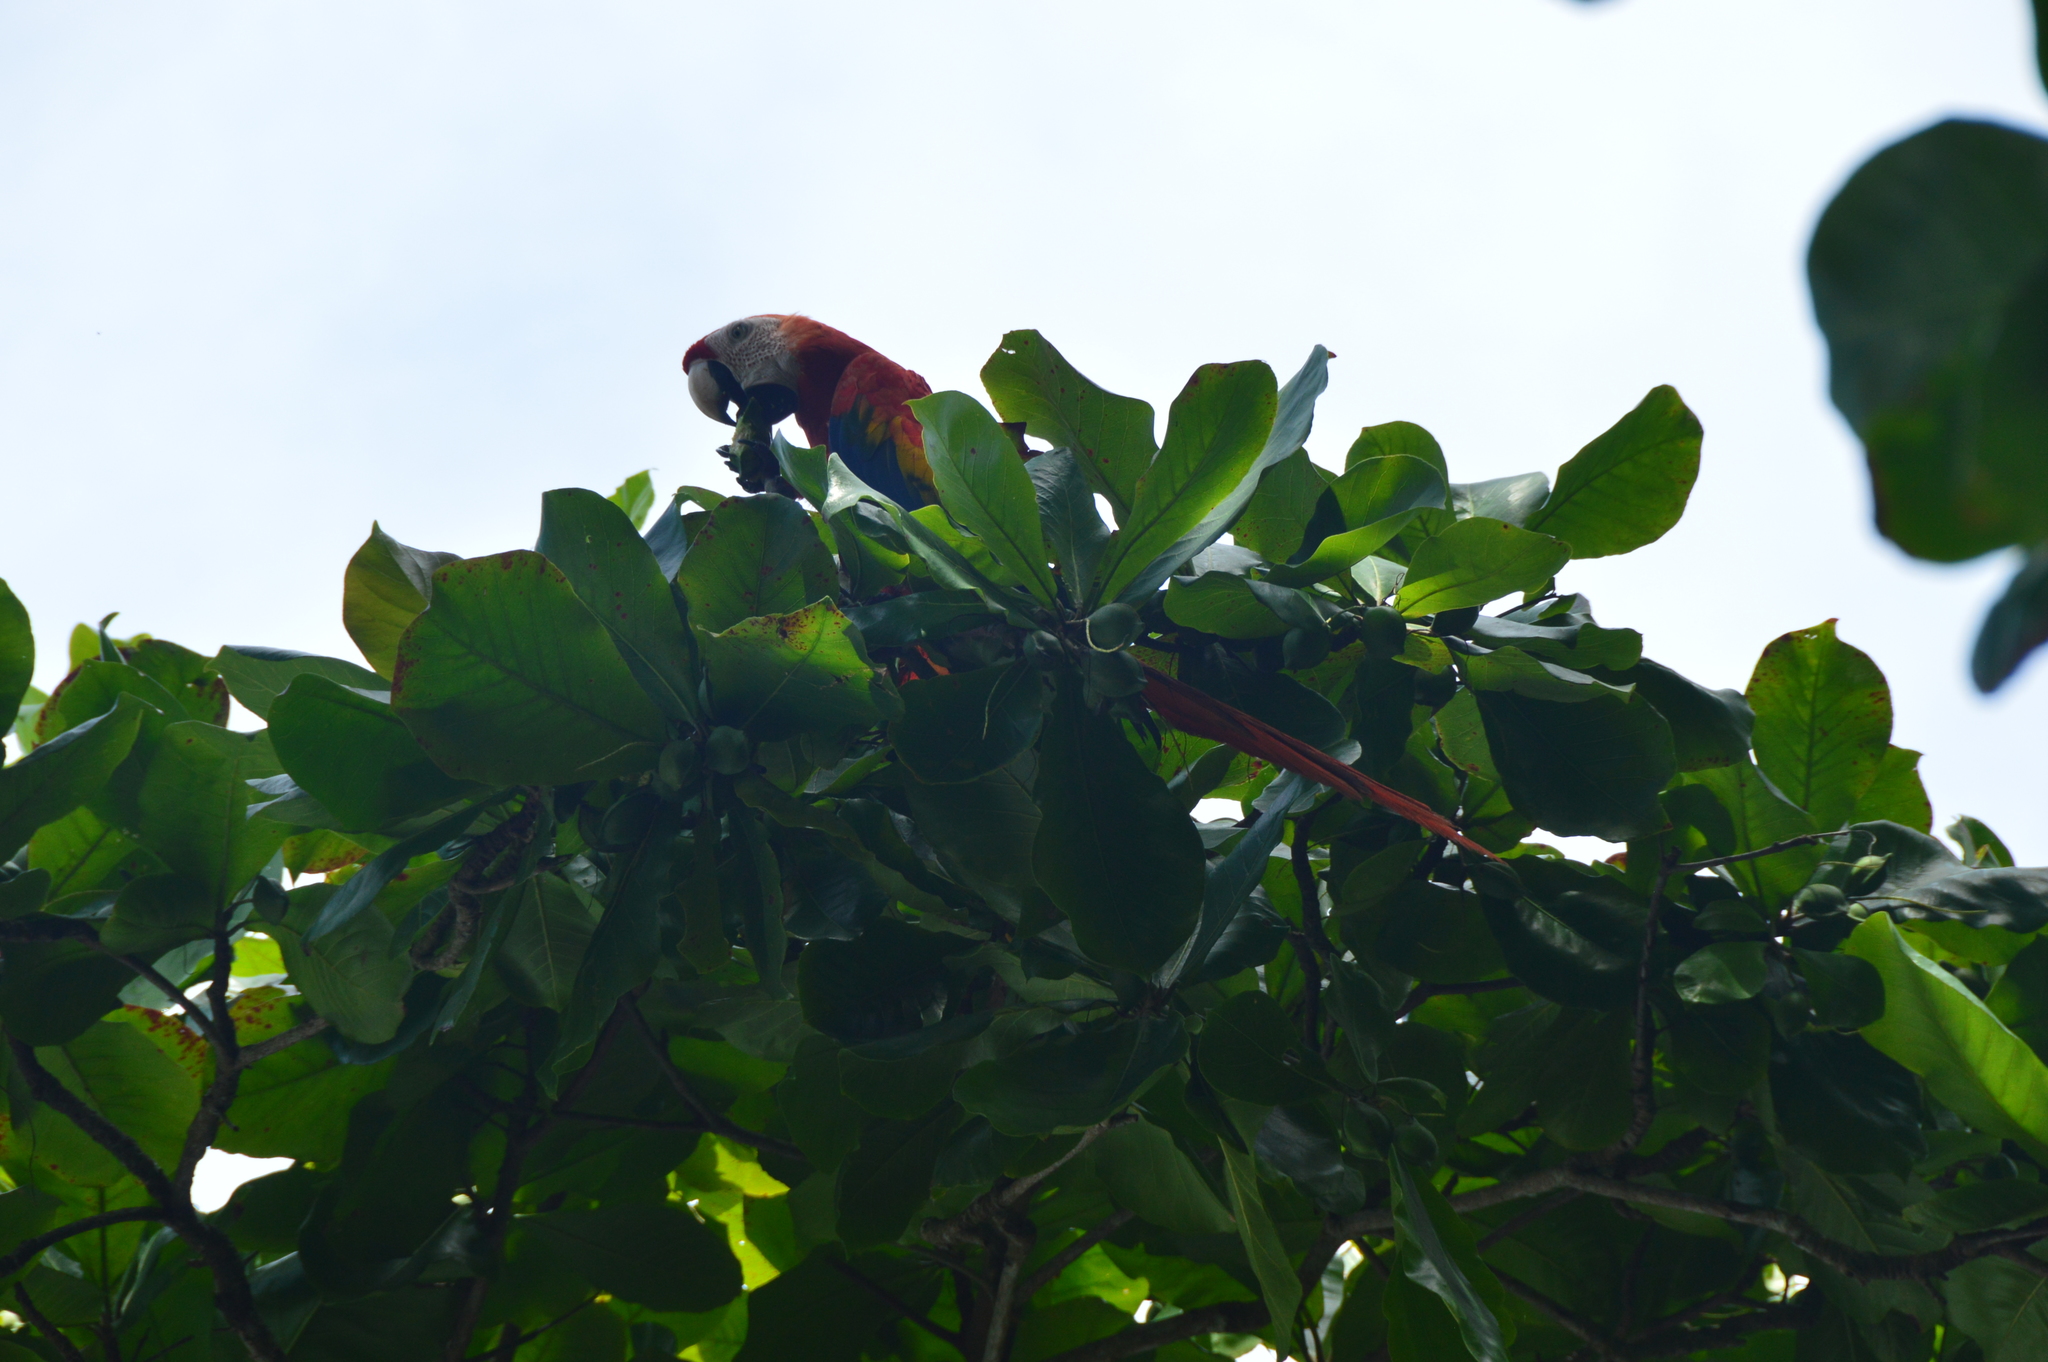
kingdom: Animalia
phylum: Chordata
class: Aves
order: Psittaciformes
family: Psittacidae
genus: Ara
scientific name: Ara macao
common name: Scarlet macaw
